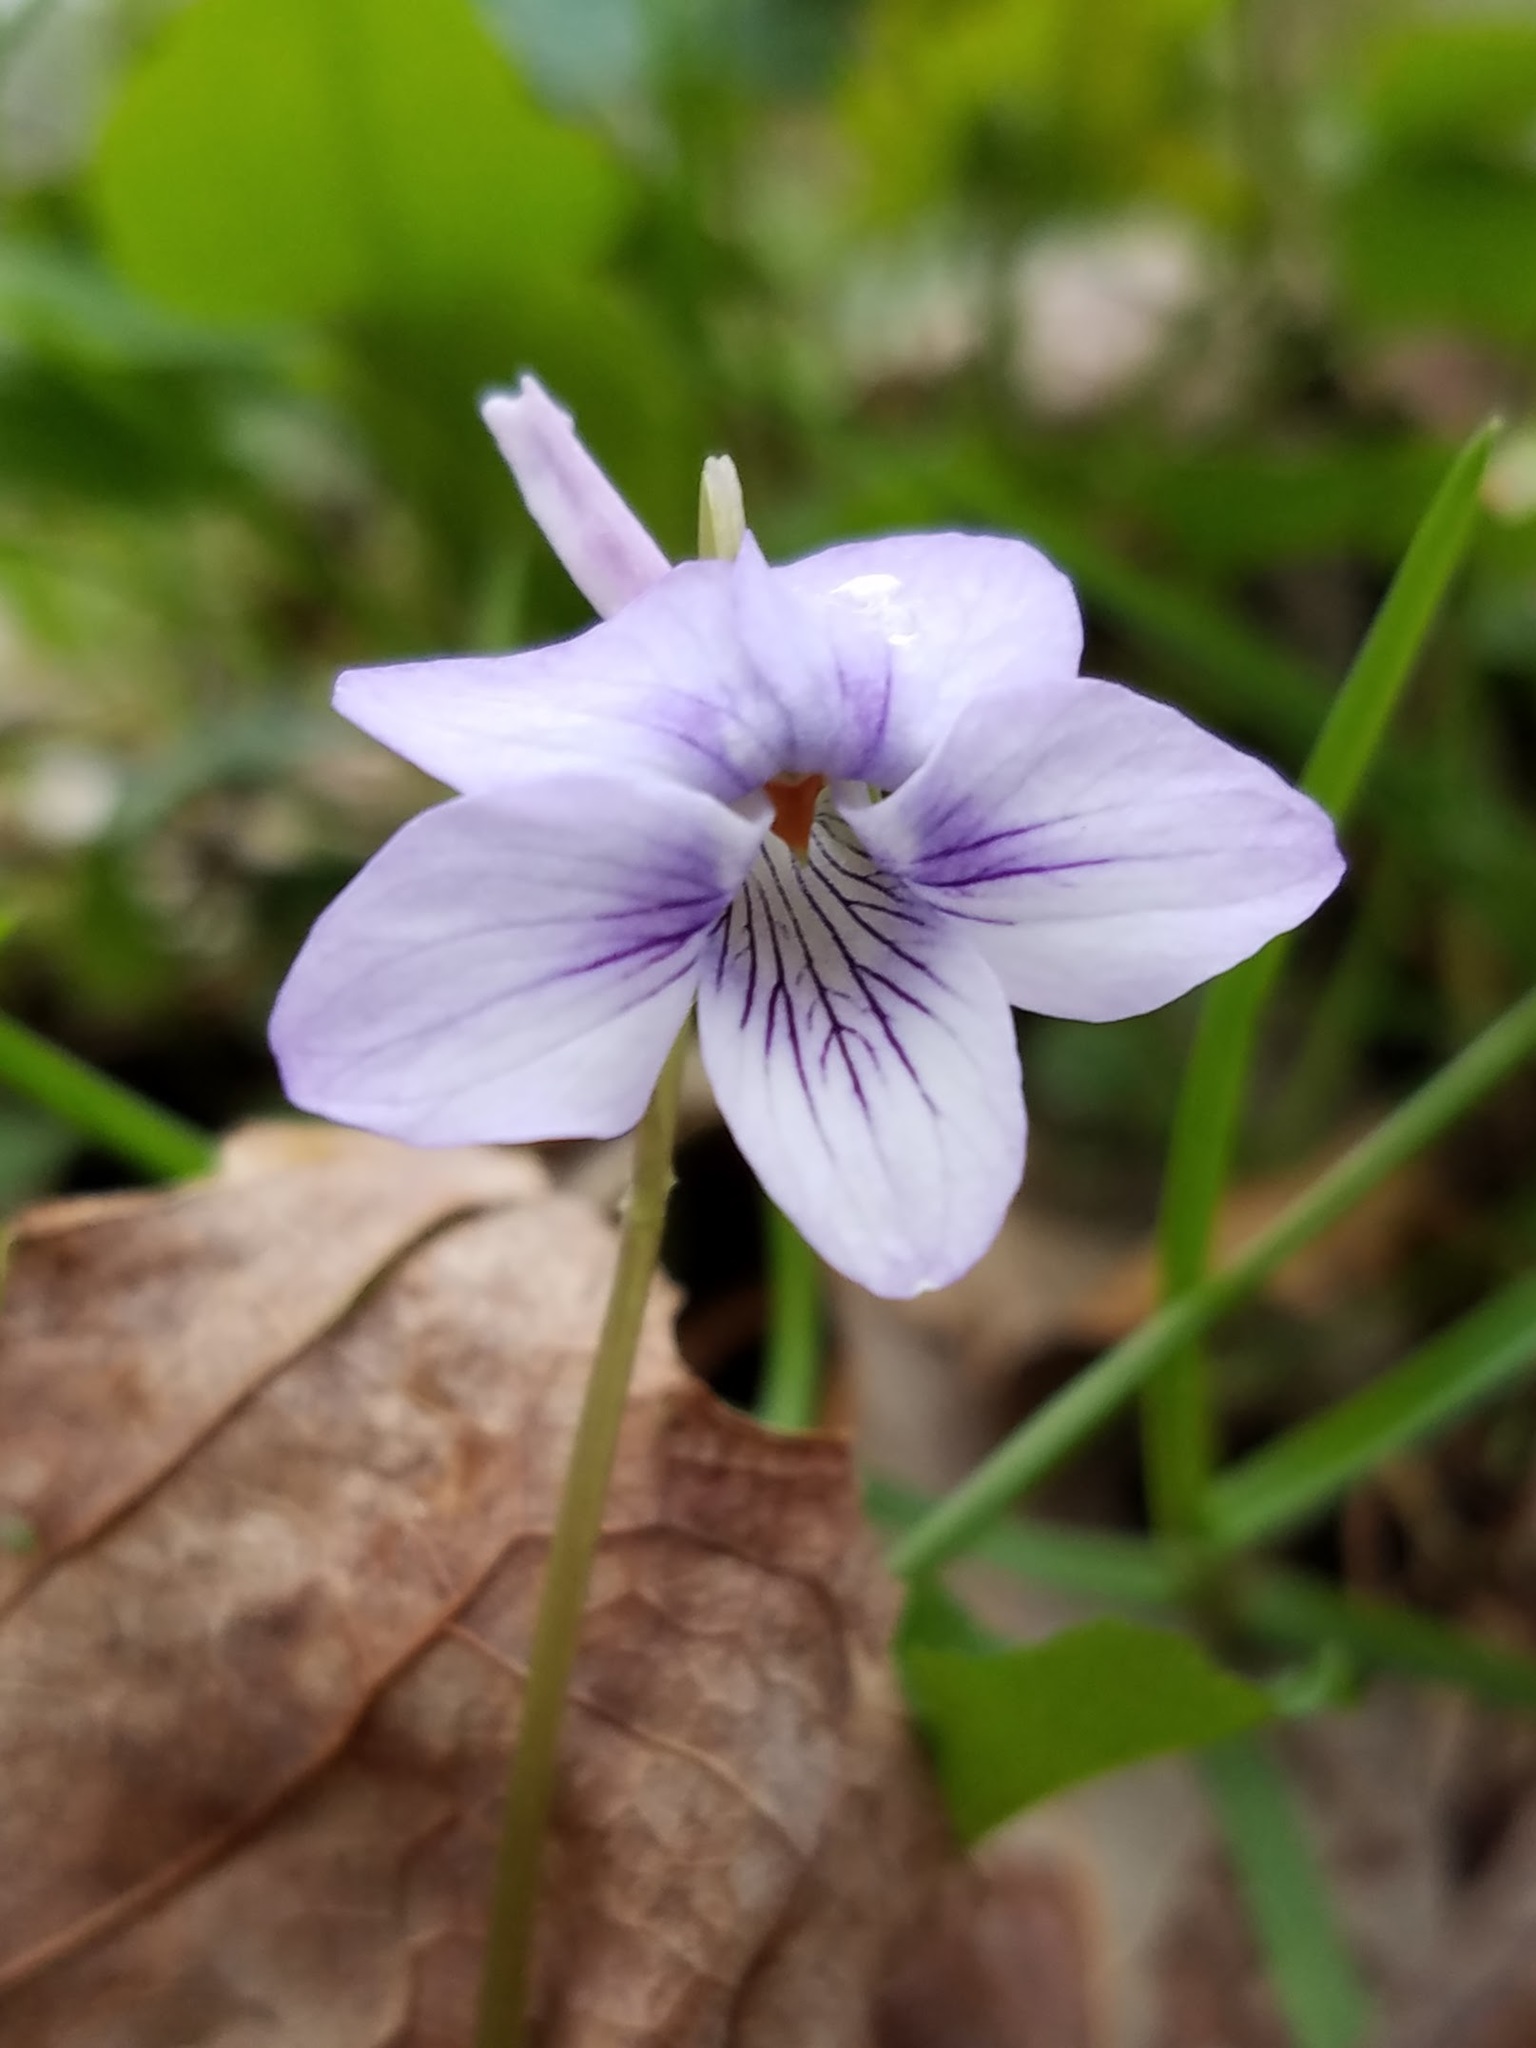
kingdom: Plantae
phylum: Tracheophyta
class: Magnoliopsida
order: Malpighiales
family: Violaceae
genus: Viola
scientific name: Viola rostrata
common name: Long-spur violet
